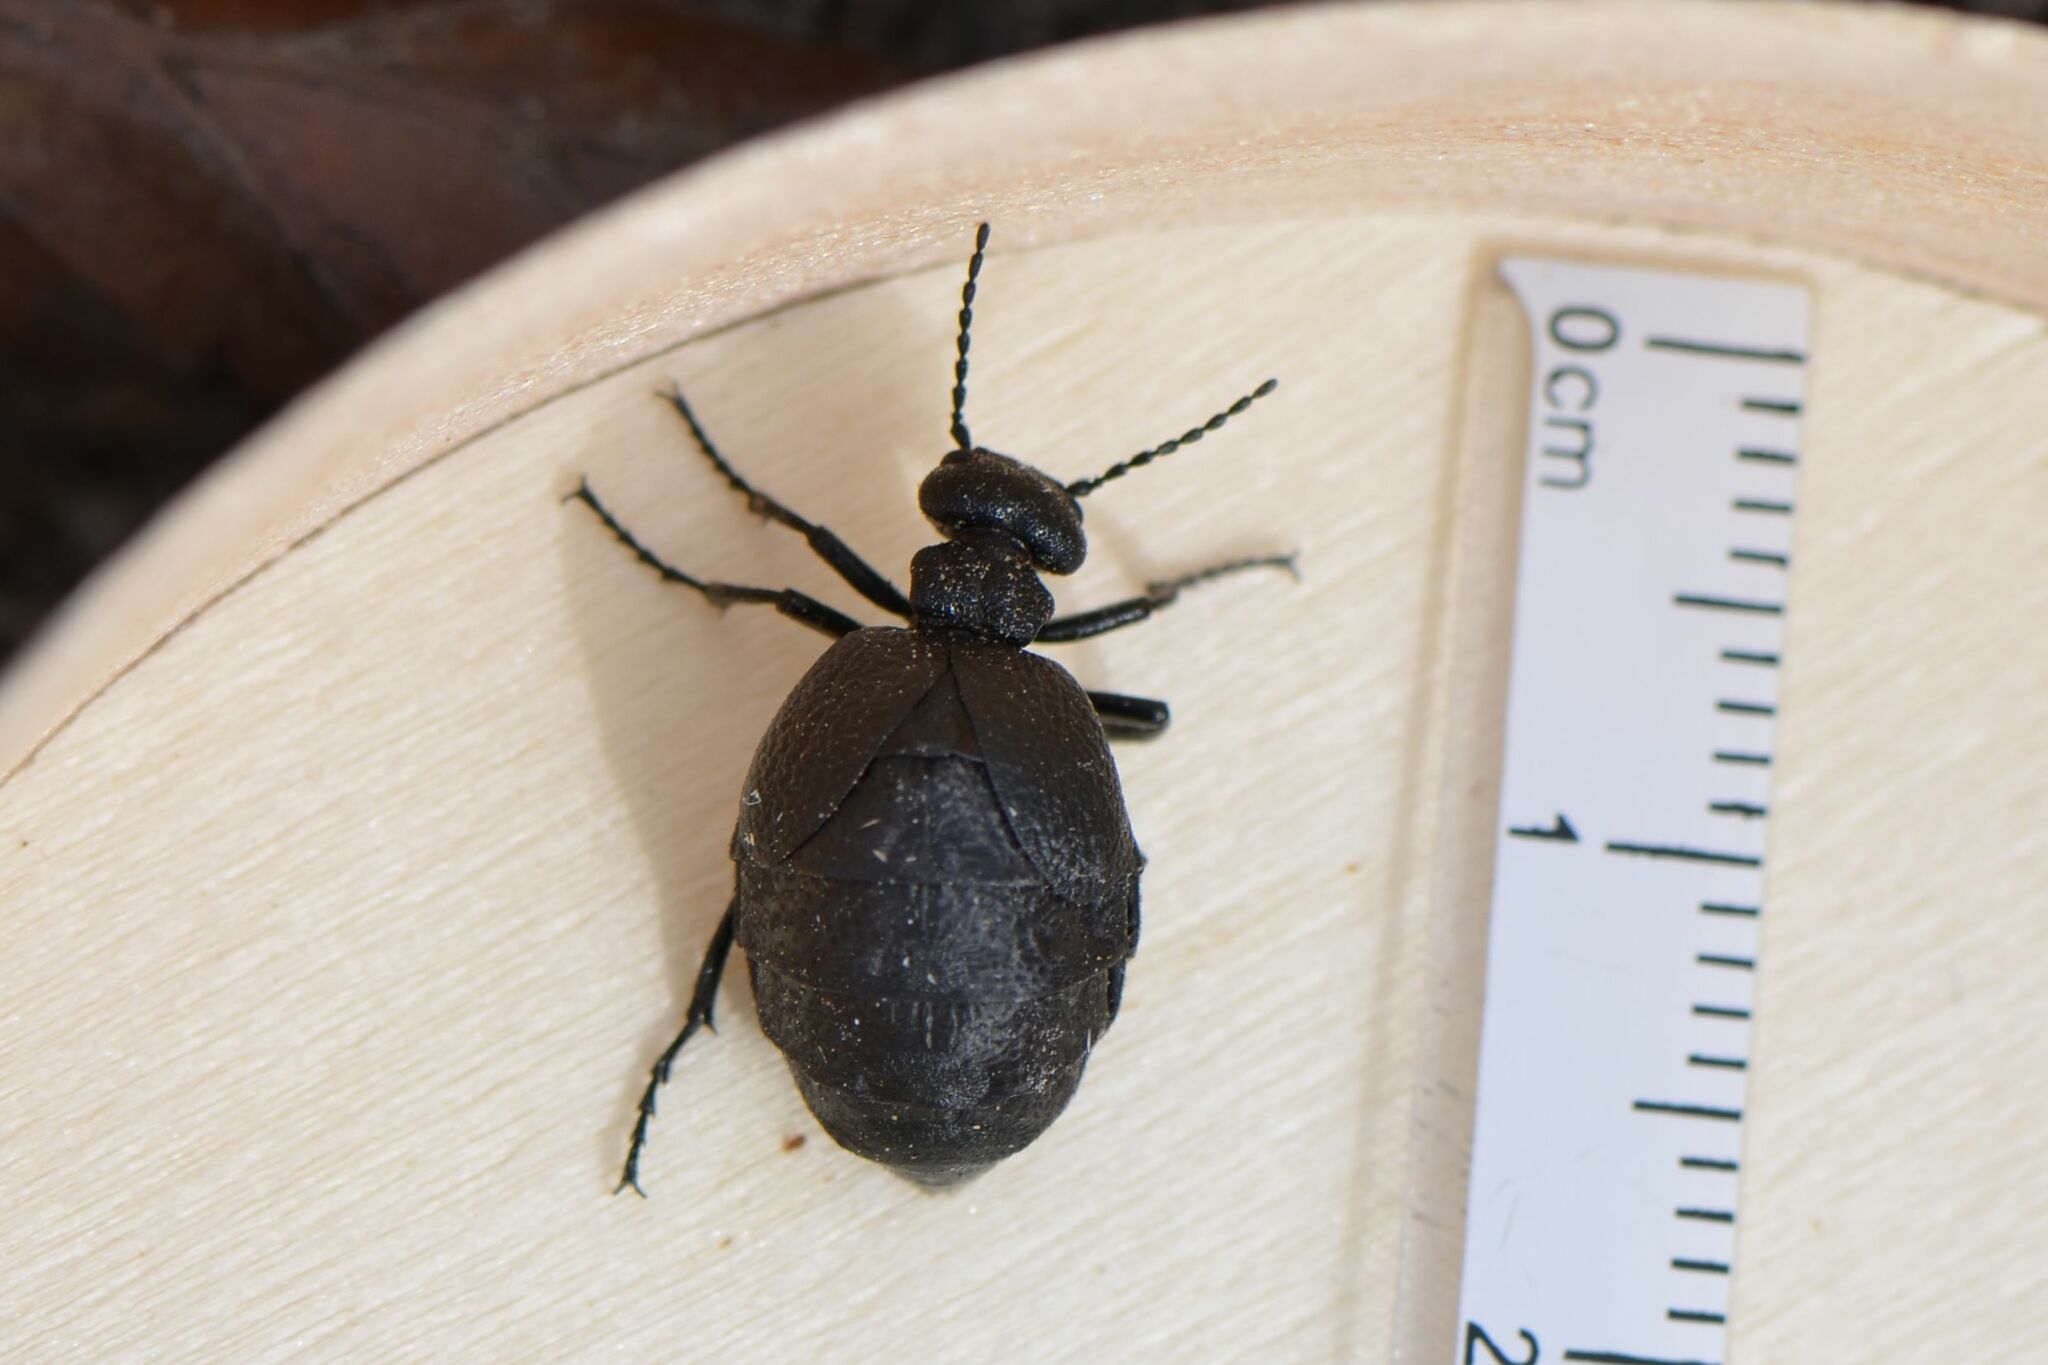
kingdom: Animalia
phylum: Arthropoda
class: Insecta
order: Coleoptera
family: Meloidae
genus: Meloe
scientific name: Meloe rugosus
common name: Rugged oil-beetle
